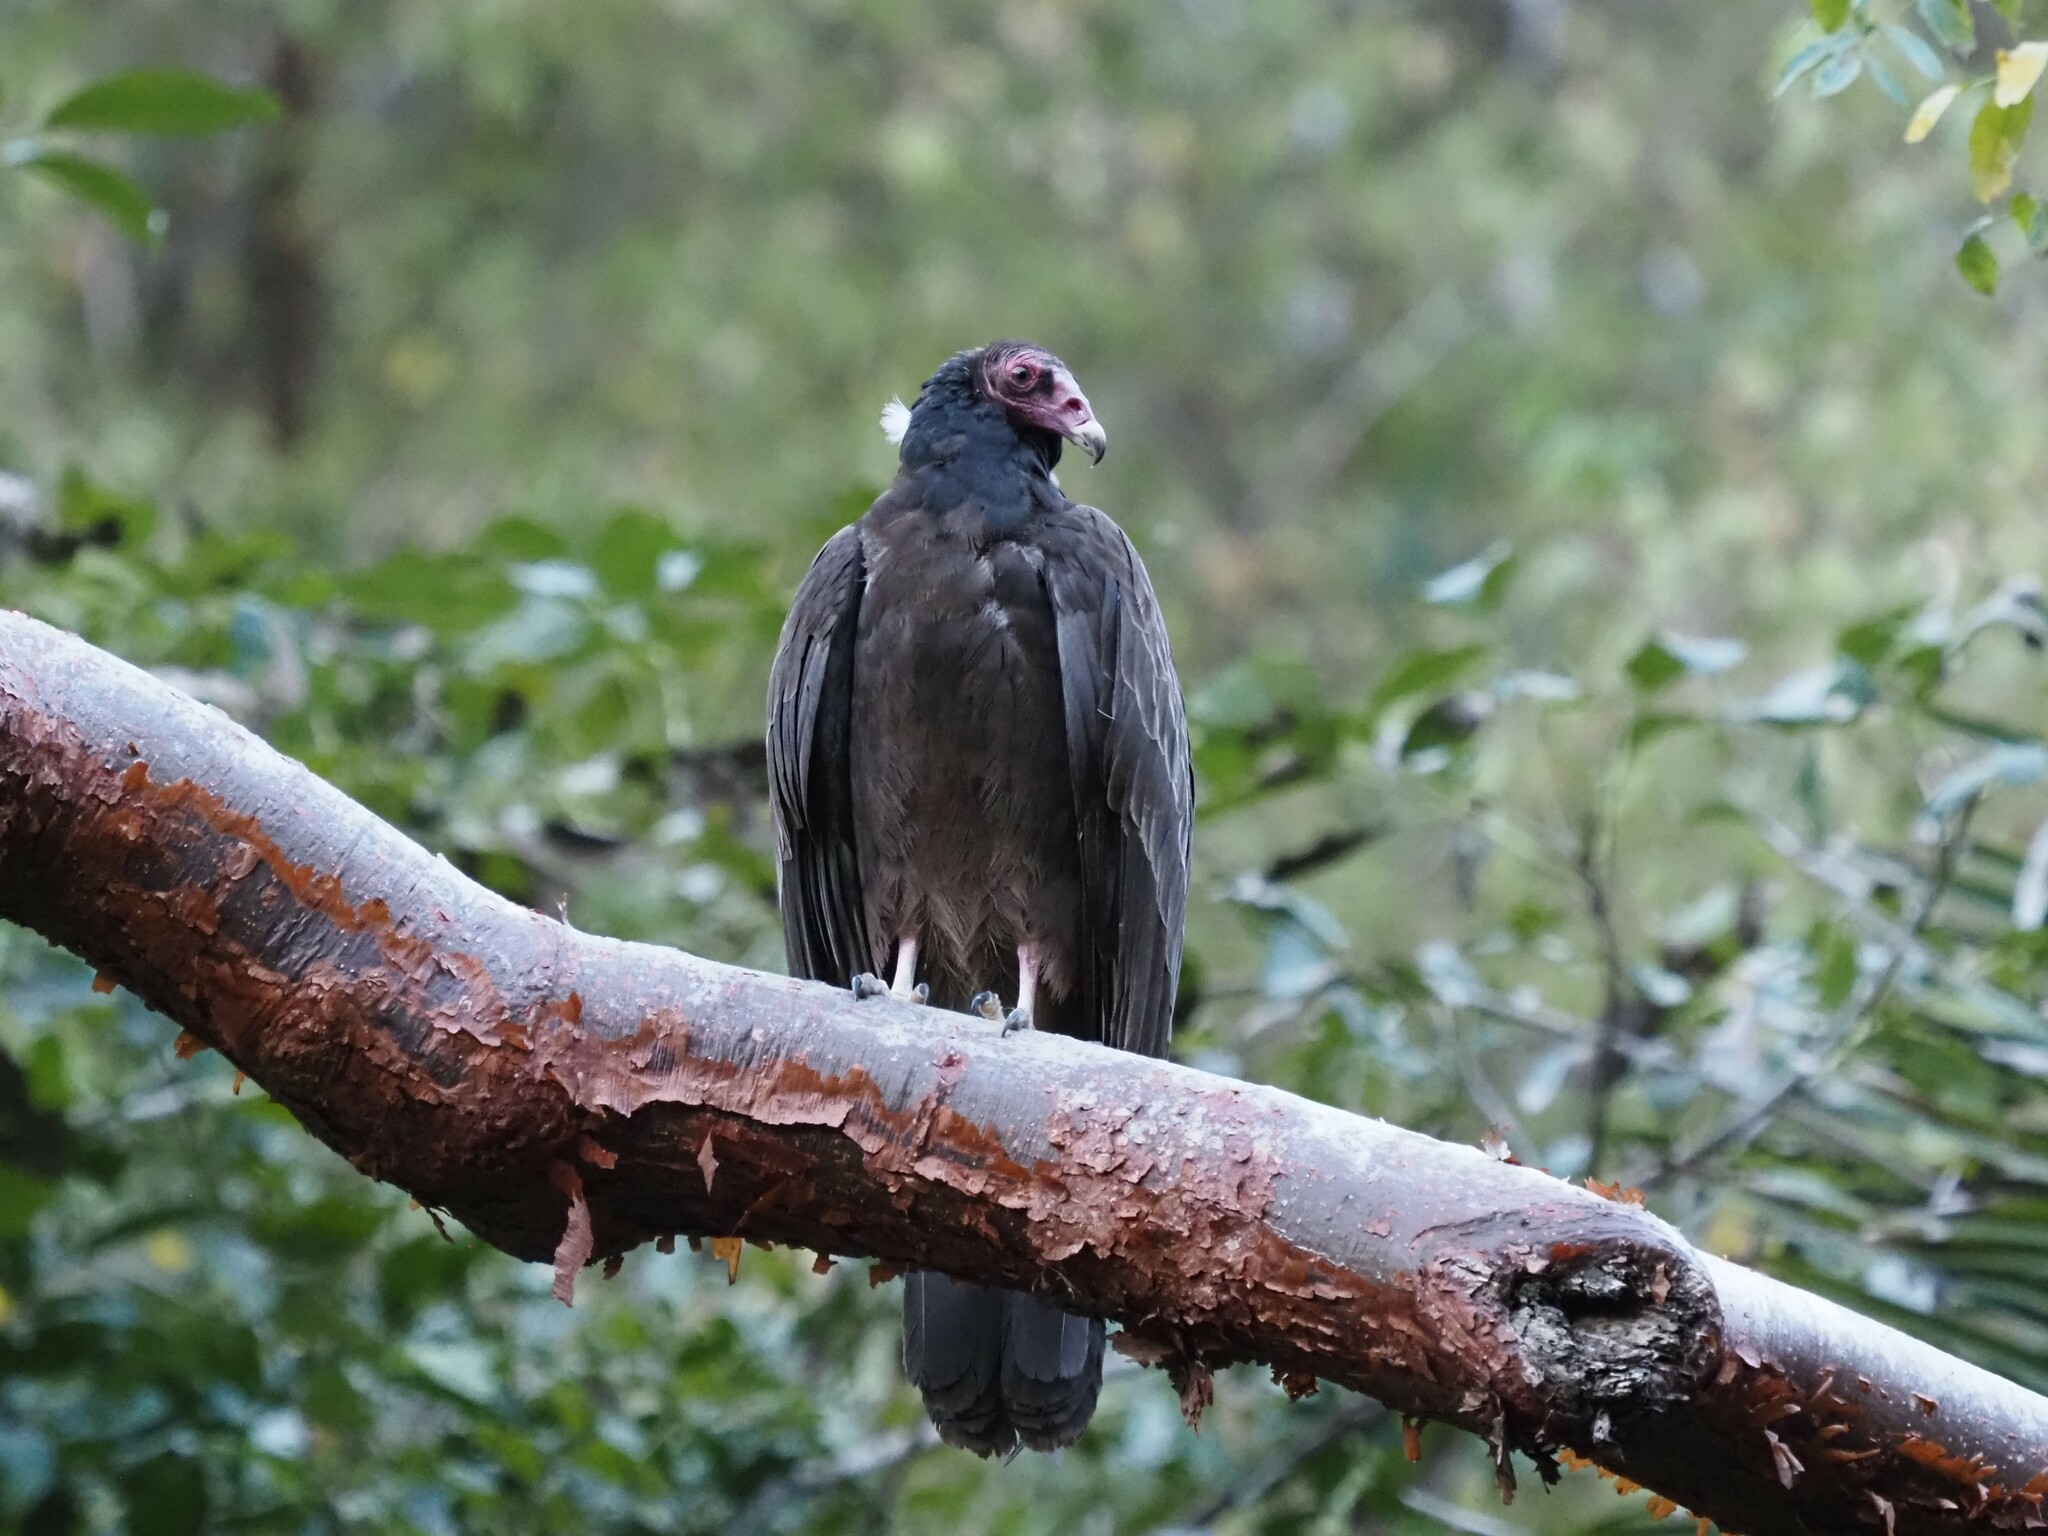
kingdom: Animalia
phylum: Chordata
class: Aves
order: Accipitriformes
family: Cathartidae
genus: Cathartes
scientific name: Cathartes aura
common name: Turkey vulture
